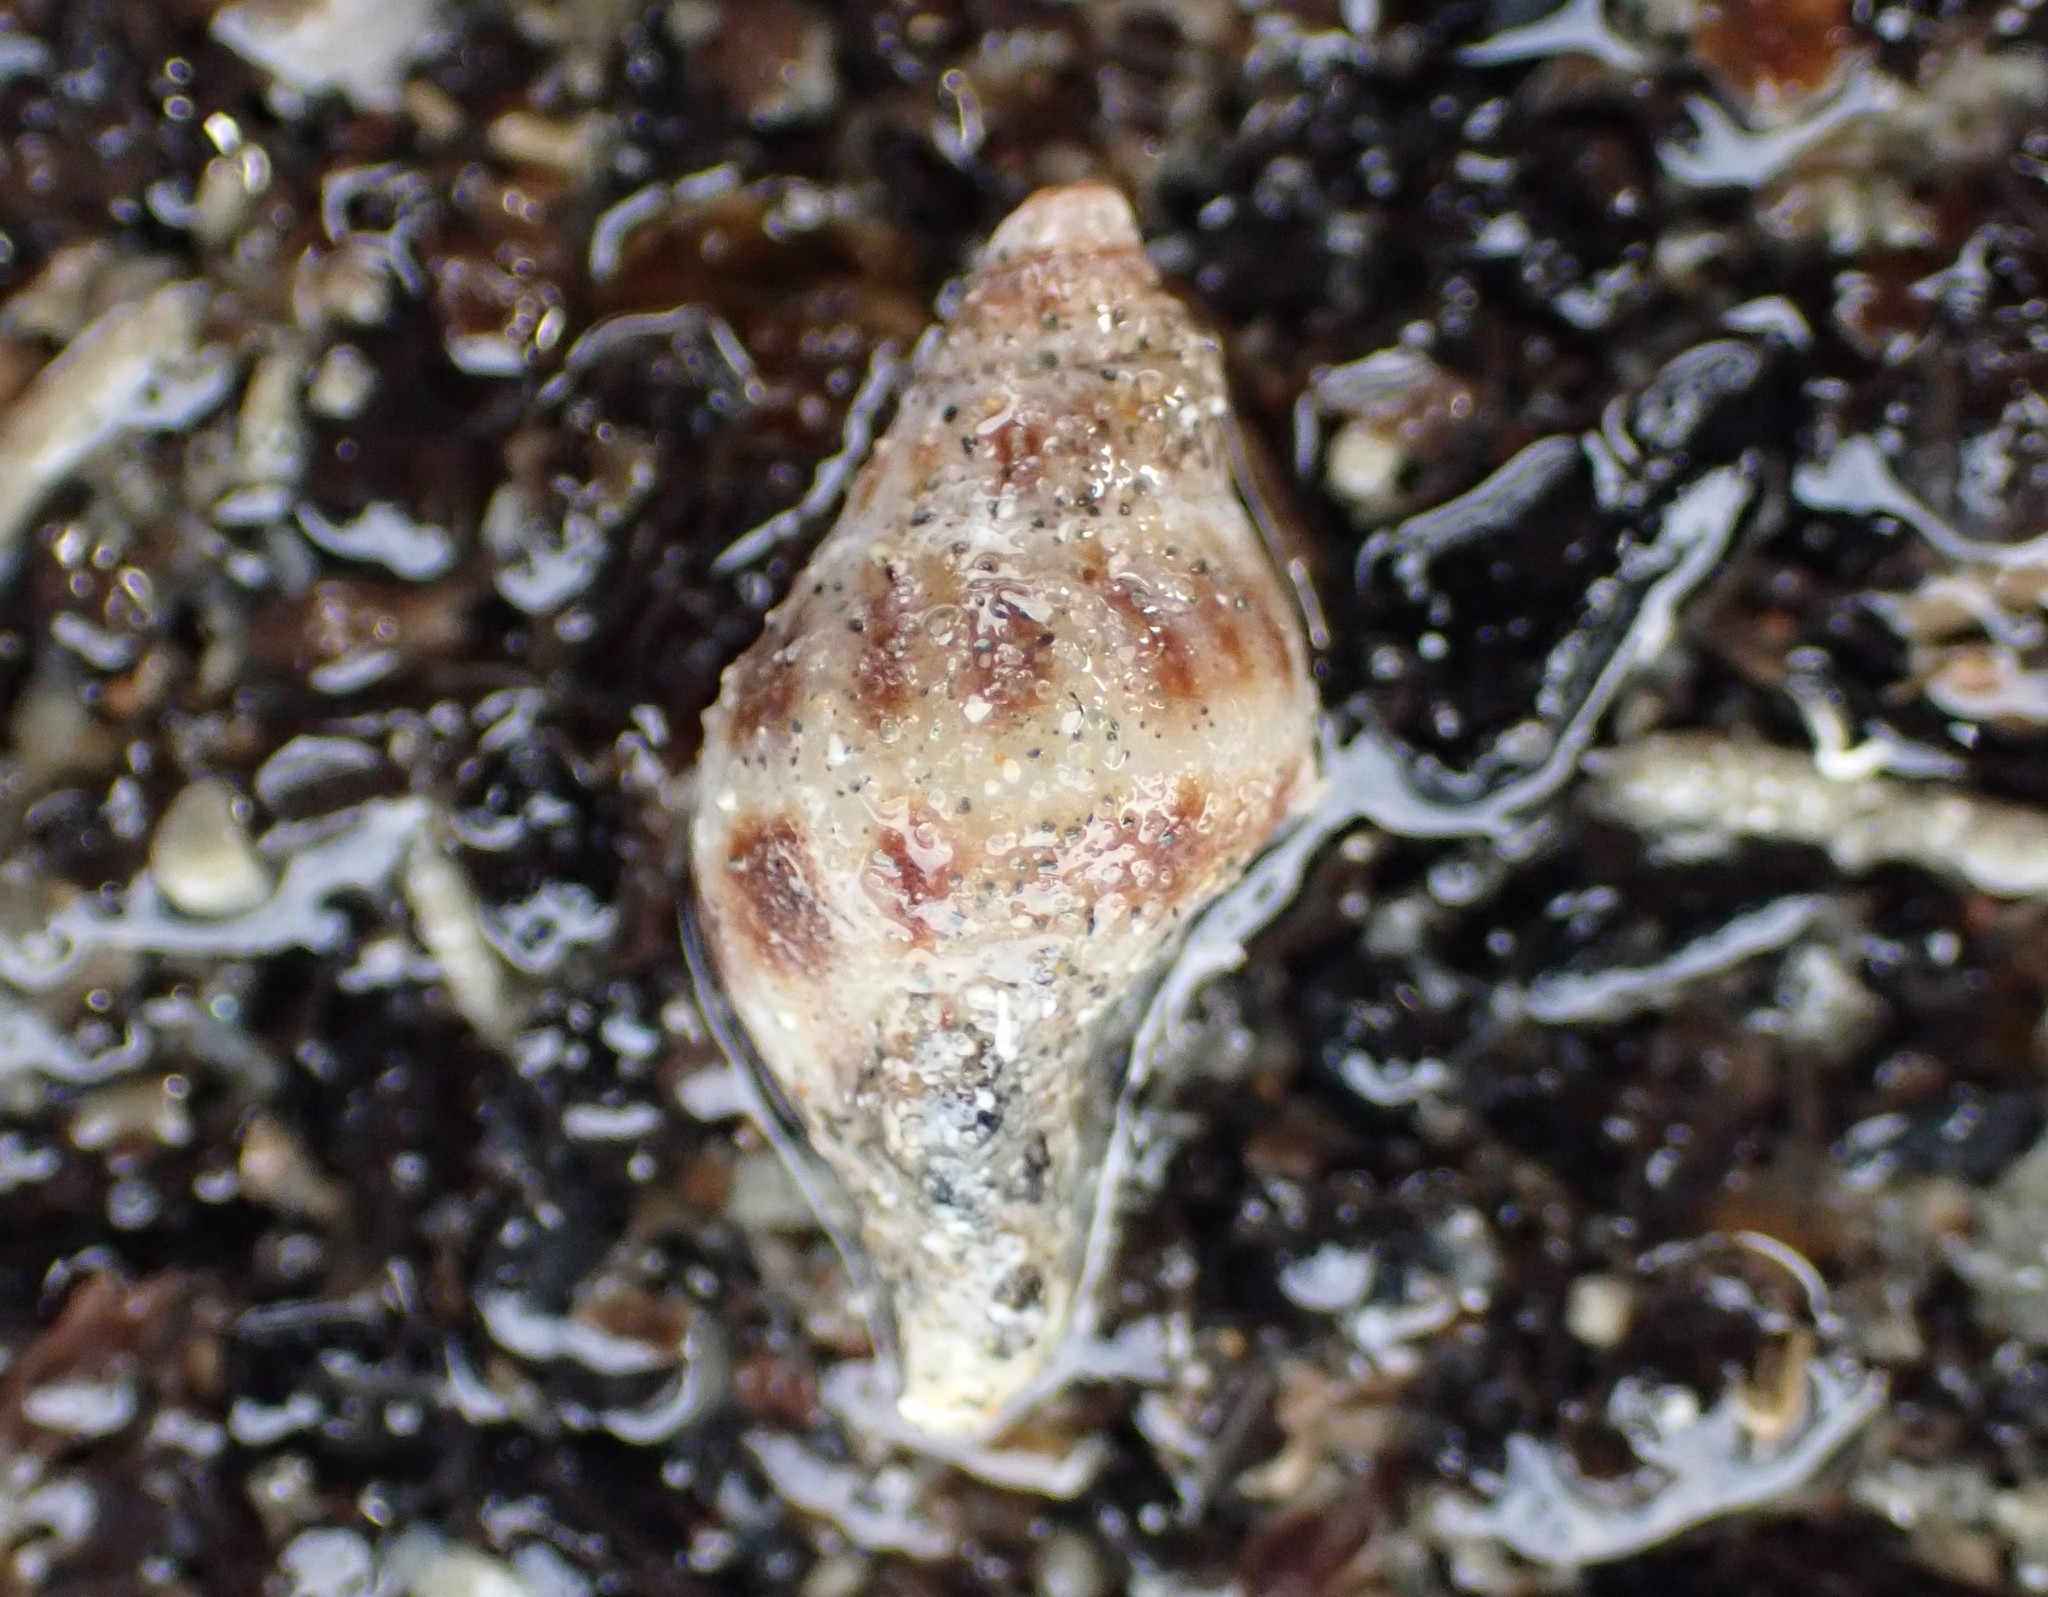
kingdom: Animalia
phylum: Mollusca
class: Gastropoda
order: Neogastropoda
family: Tudiclidae
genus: Buccinulum
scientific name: Buccinulum vittatum
